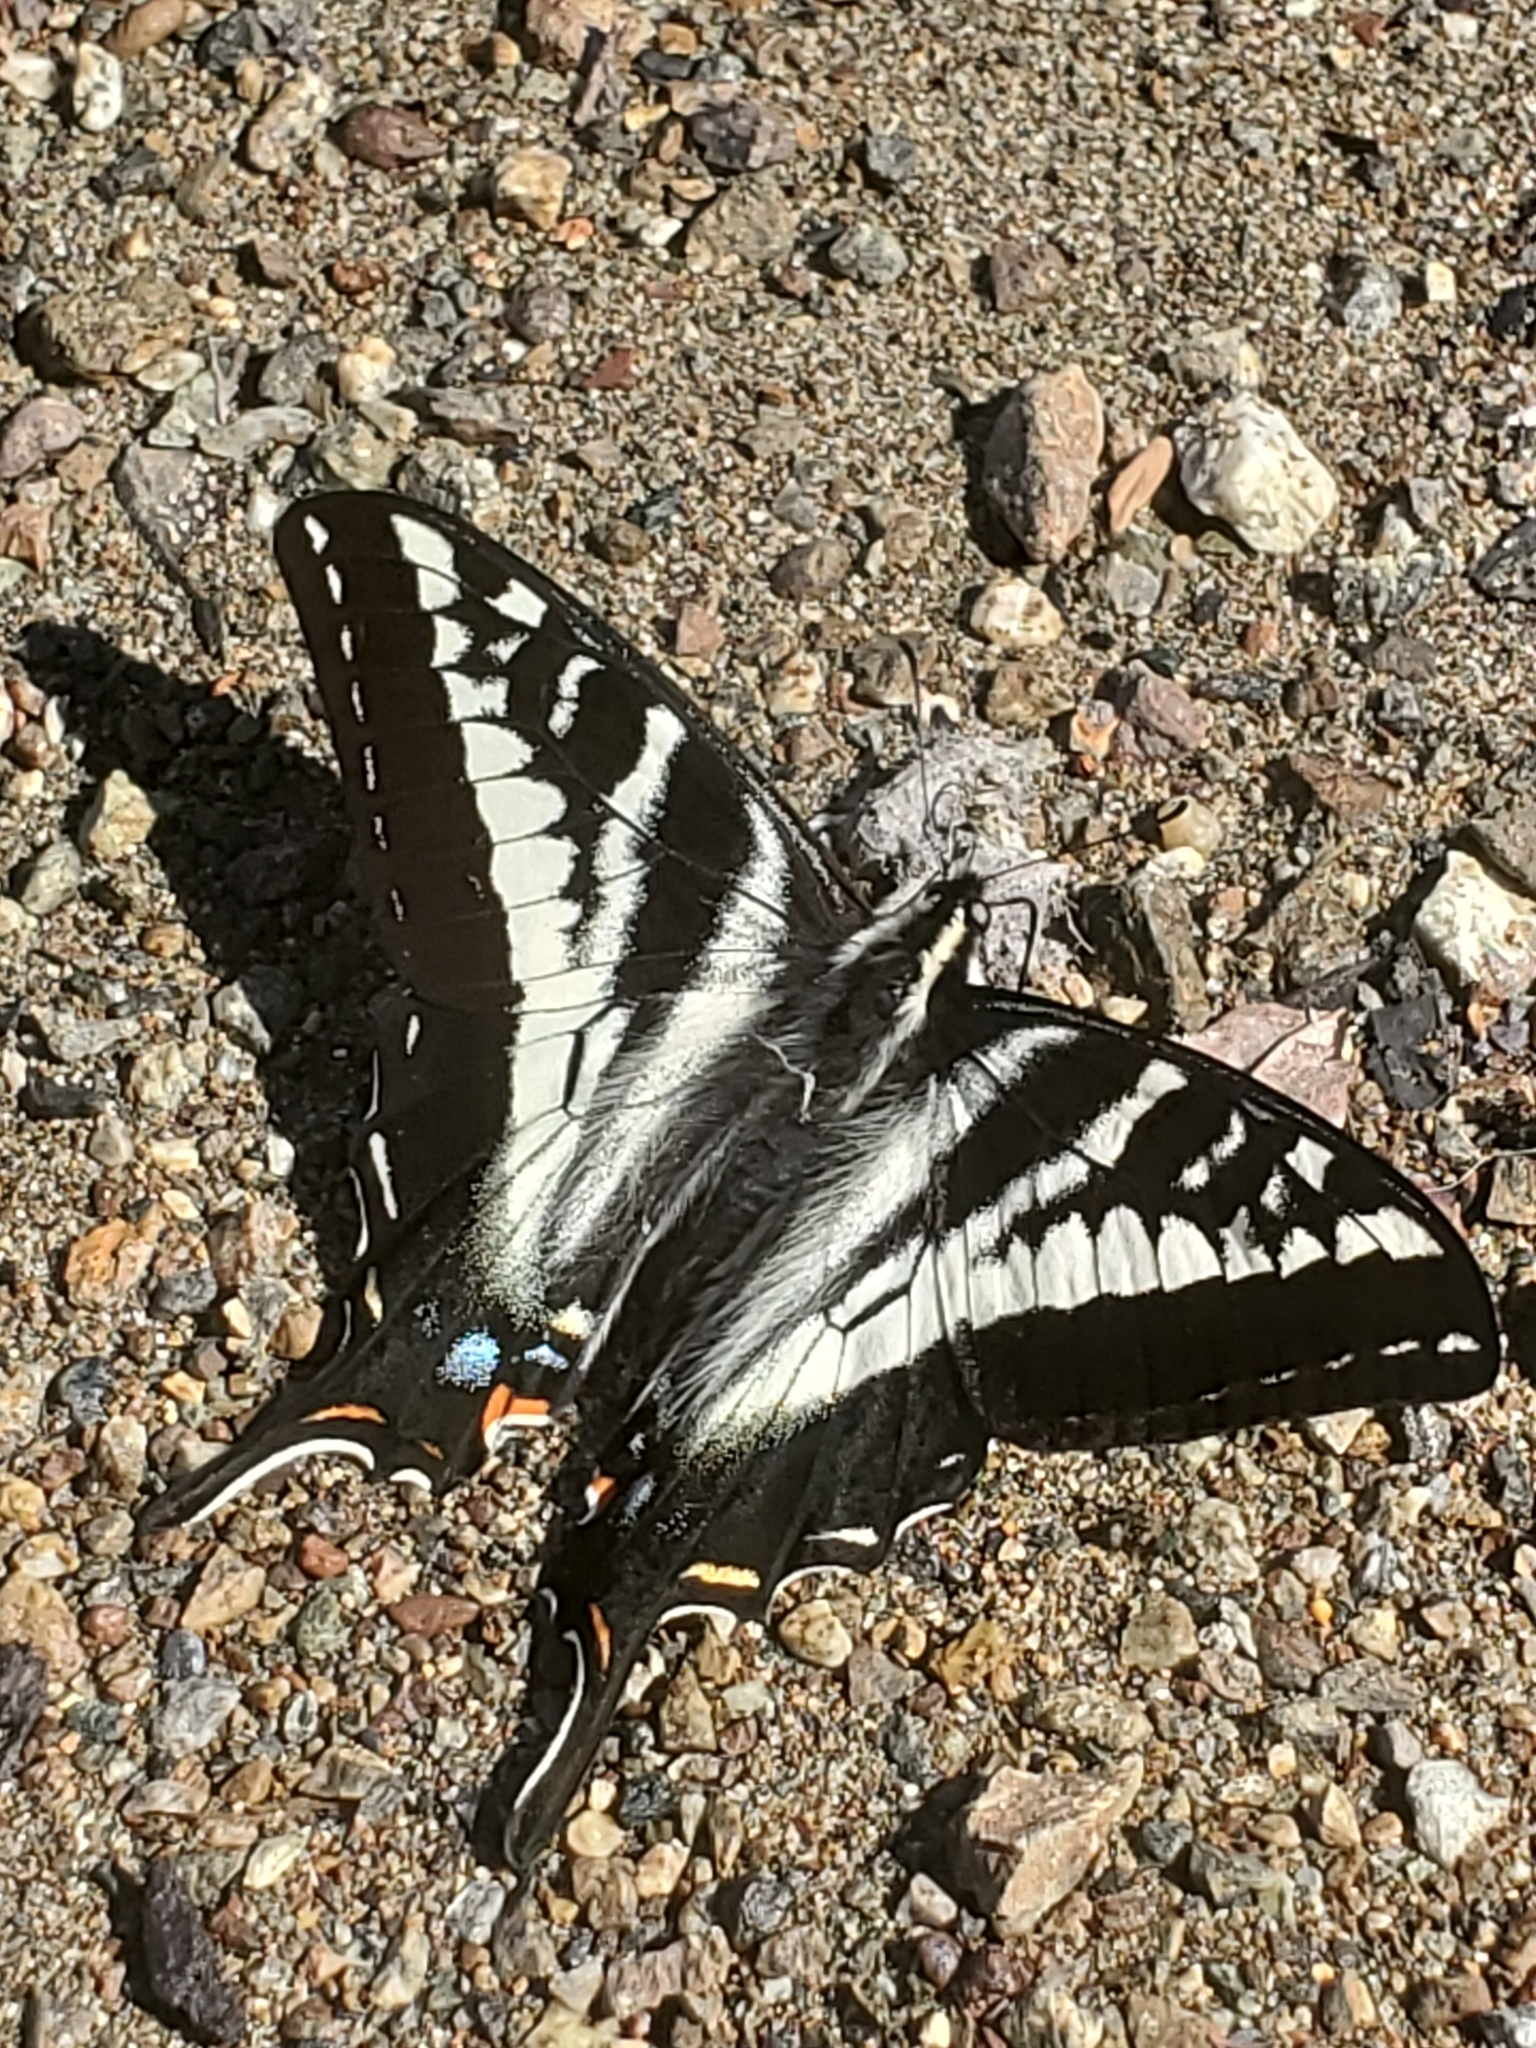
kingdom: Animalia
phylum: Arthropoda
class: Insecta
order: Lepidoptera
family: Papilionidae
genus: Papilio
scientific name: Papilio eurymedon
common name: Pale tiger swallowtail
